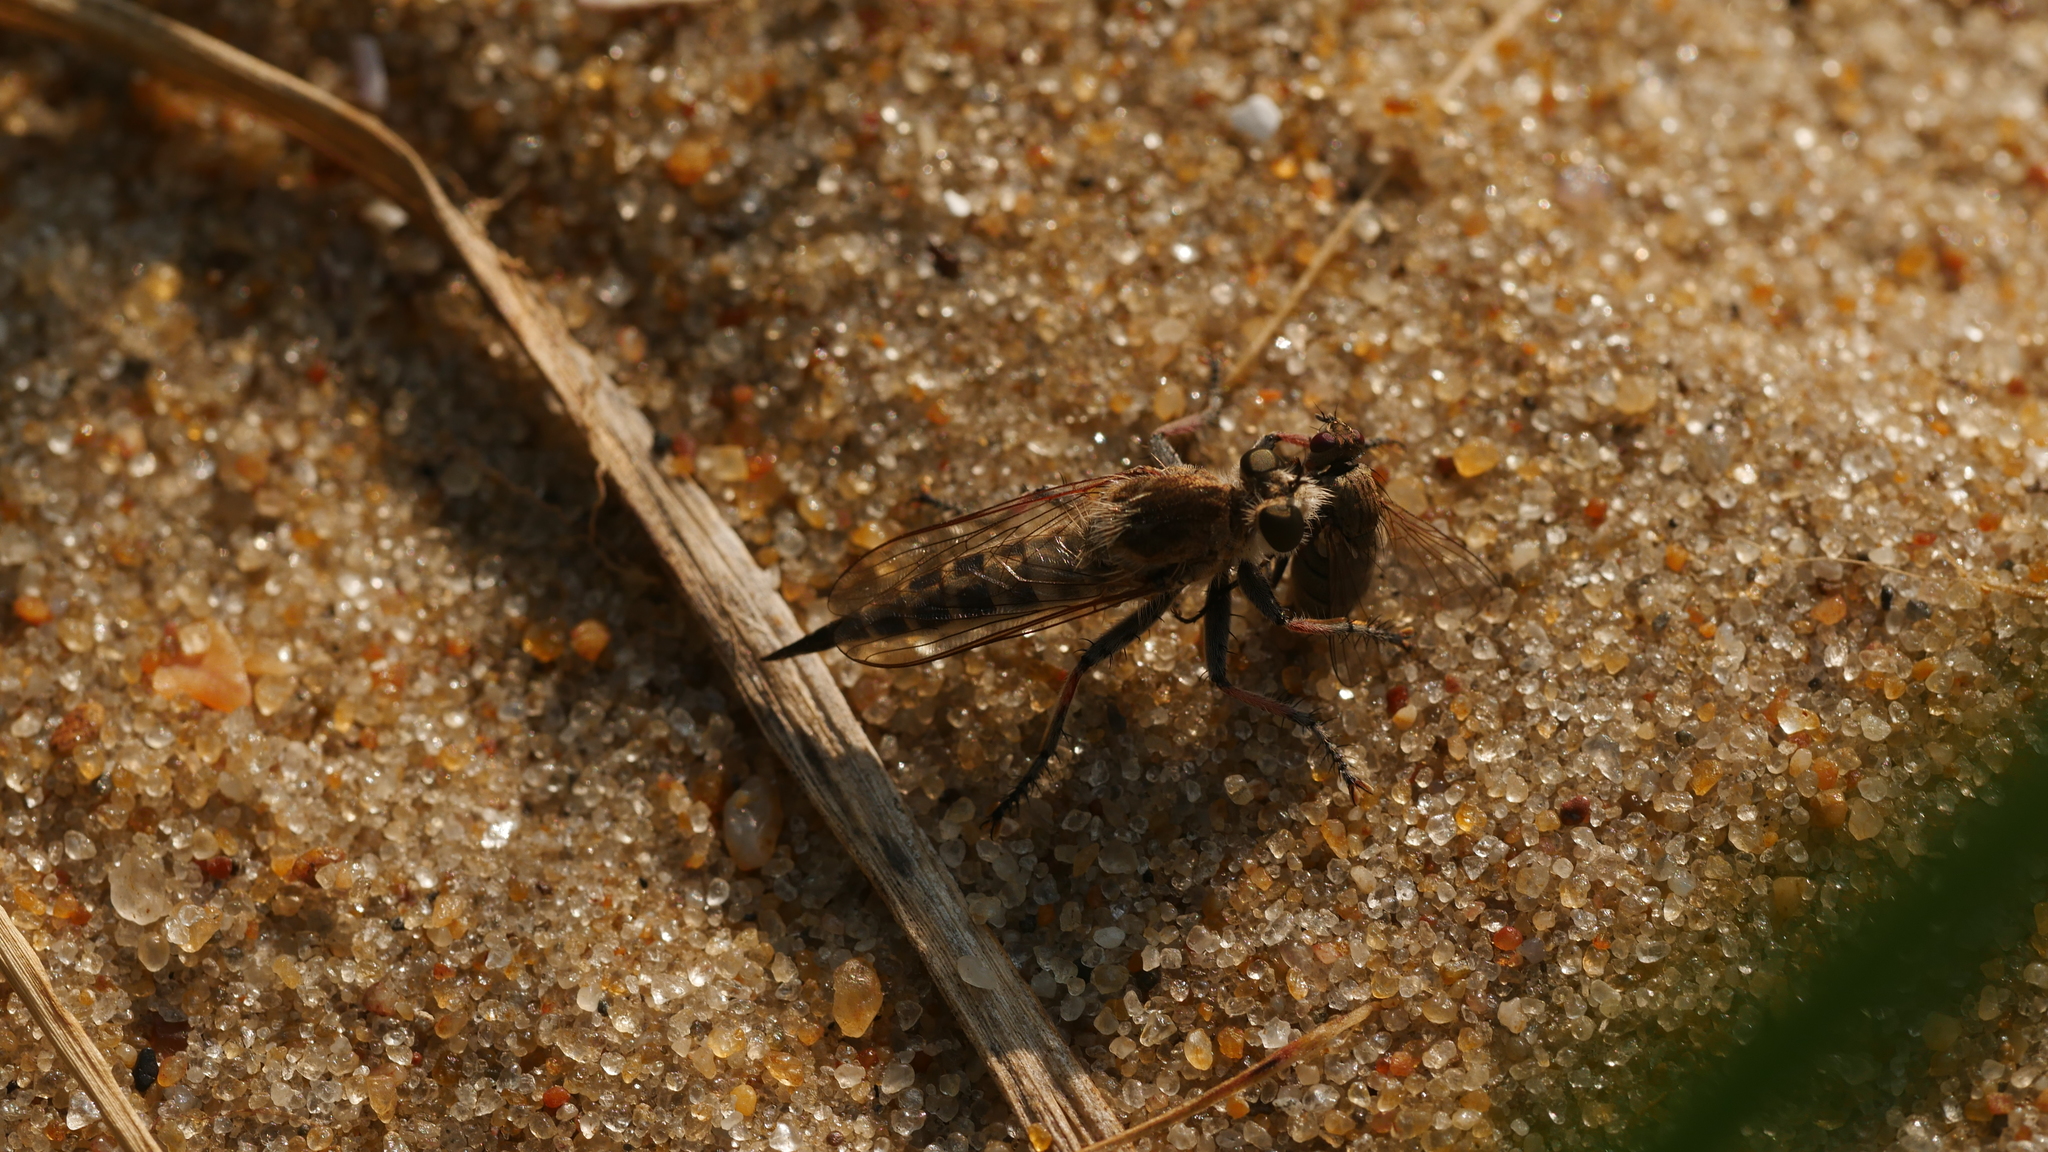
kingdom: Animalia
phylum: Arthropoda
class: Insecta
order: Diptera
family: Asilidae
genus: Efferia
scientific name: Efferia albibarbis
